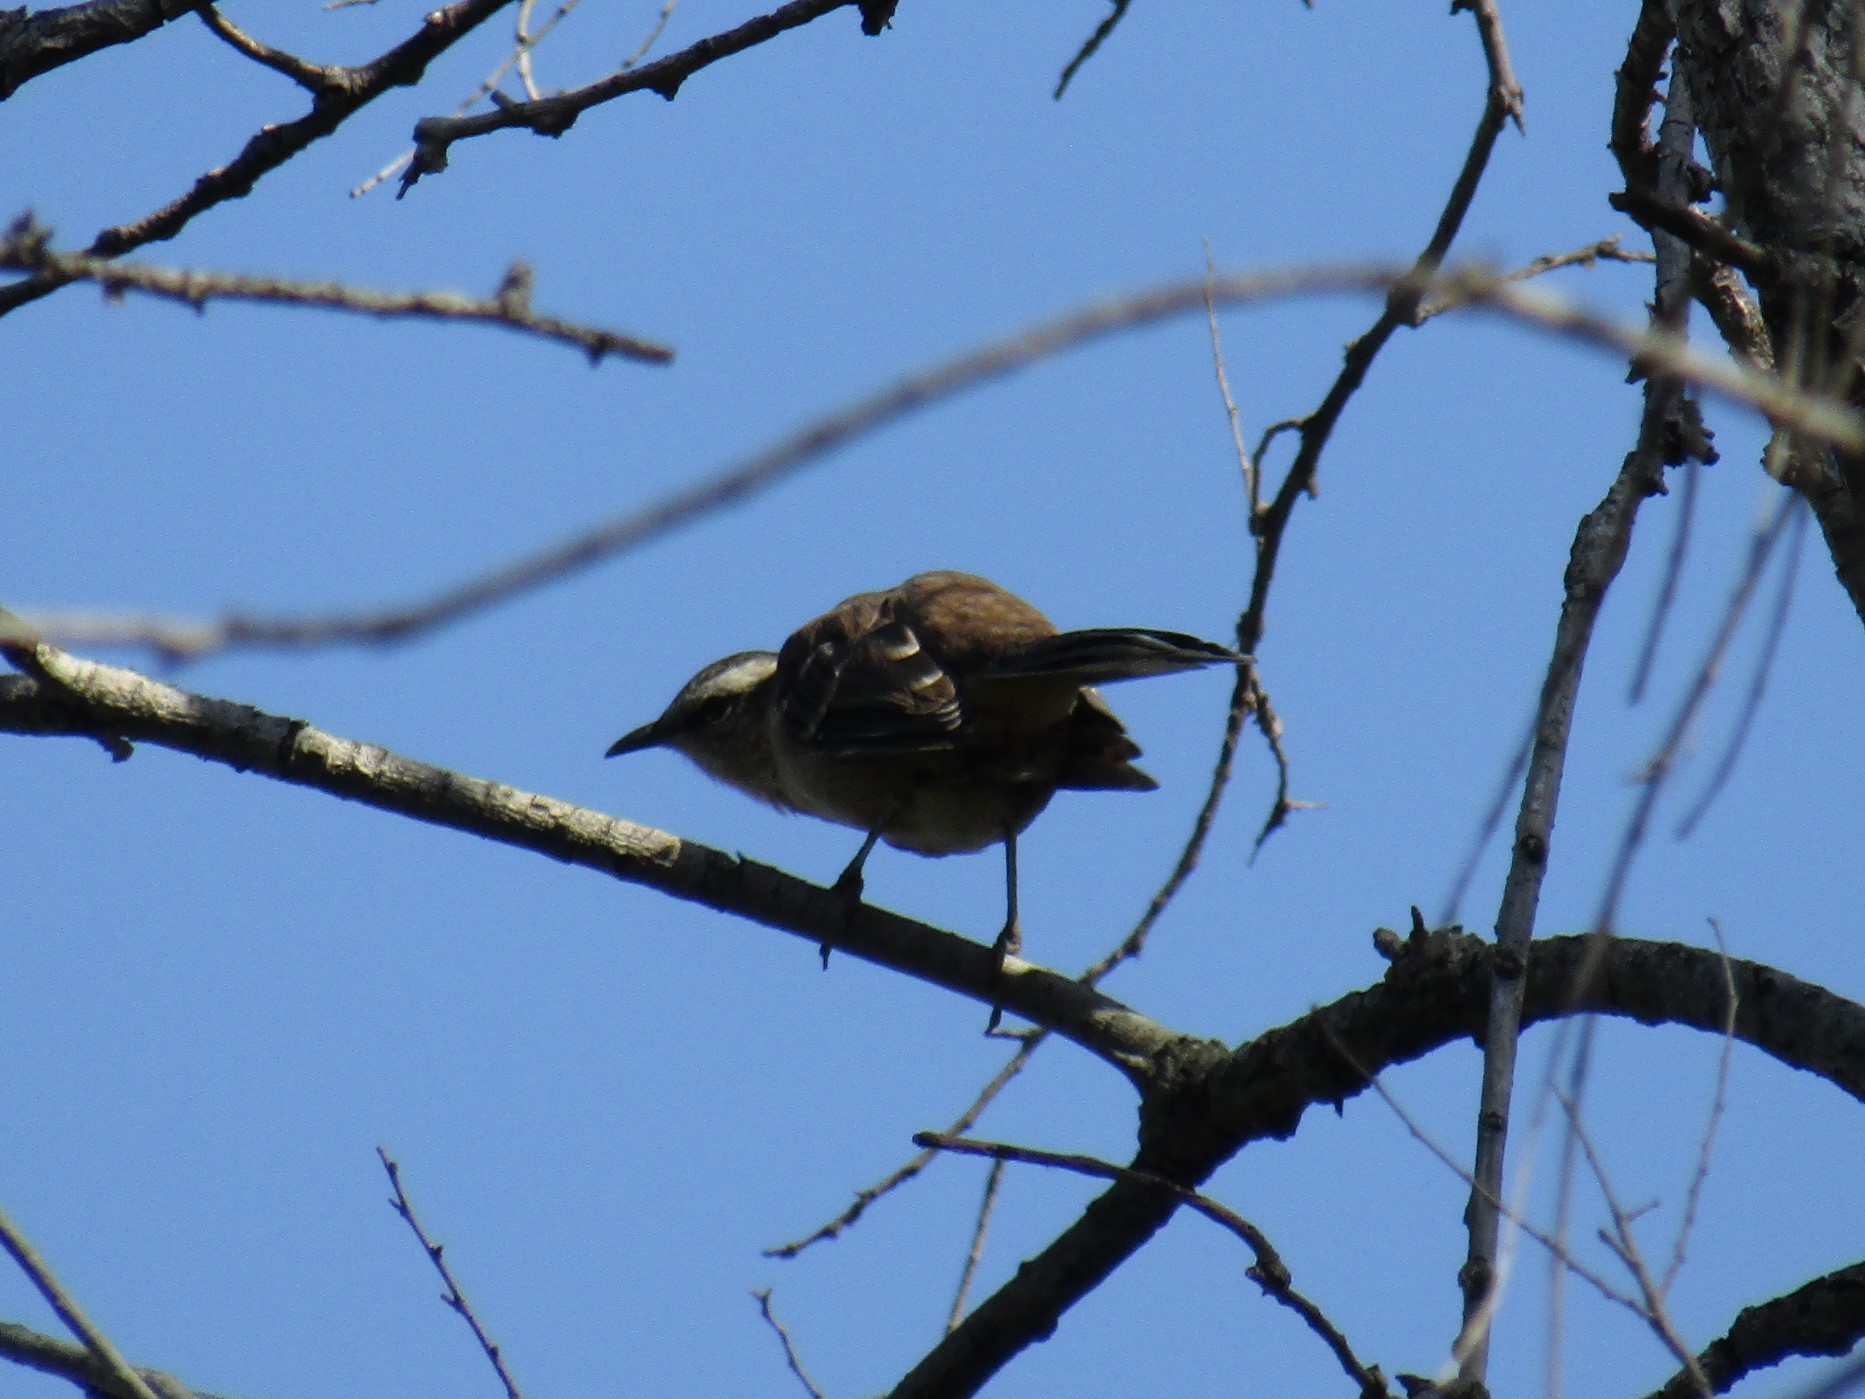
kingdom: Animalia
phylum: Chordata
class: Aves
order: Passeriformes
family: Mimidae
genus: Mimus
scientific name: Mimus saturninus
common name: Chalk-browed mockingbird
